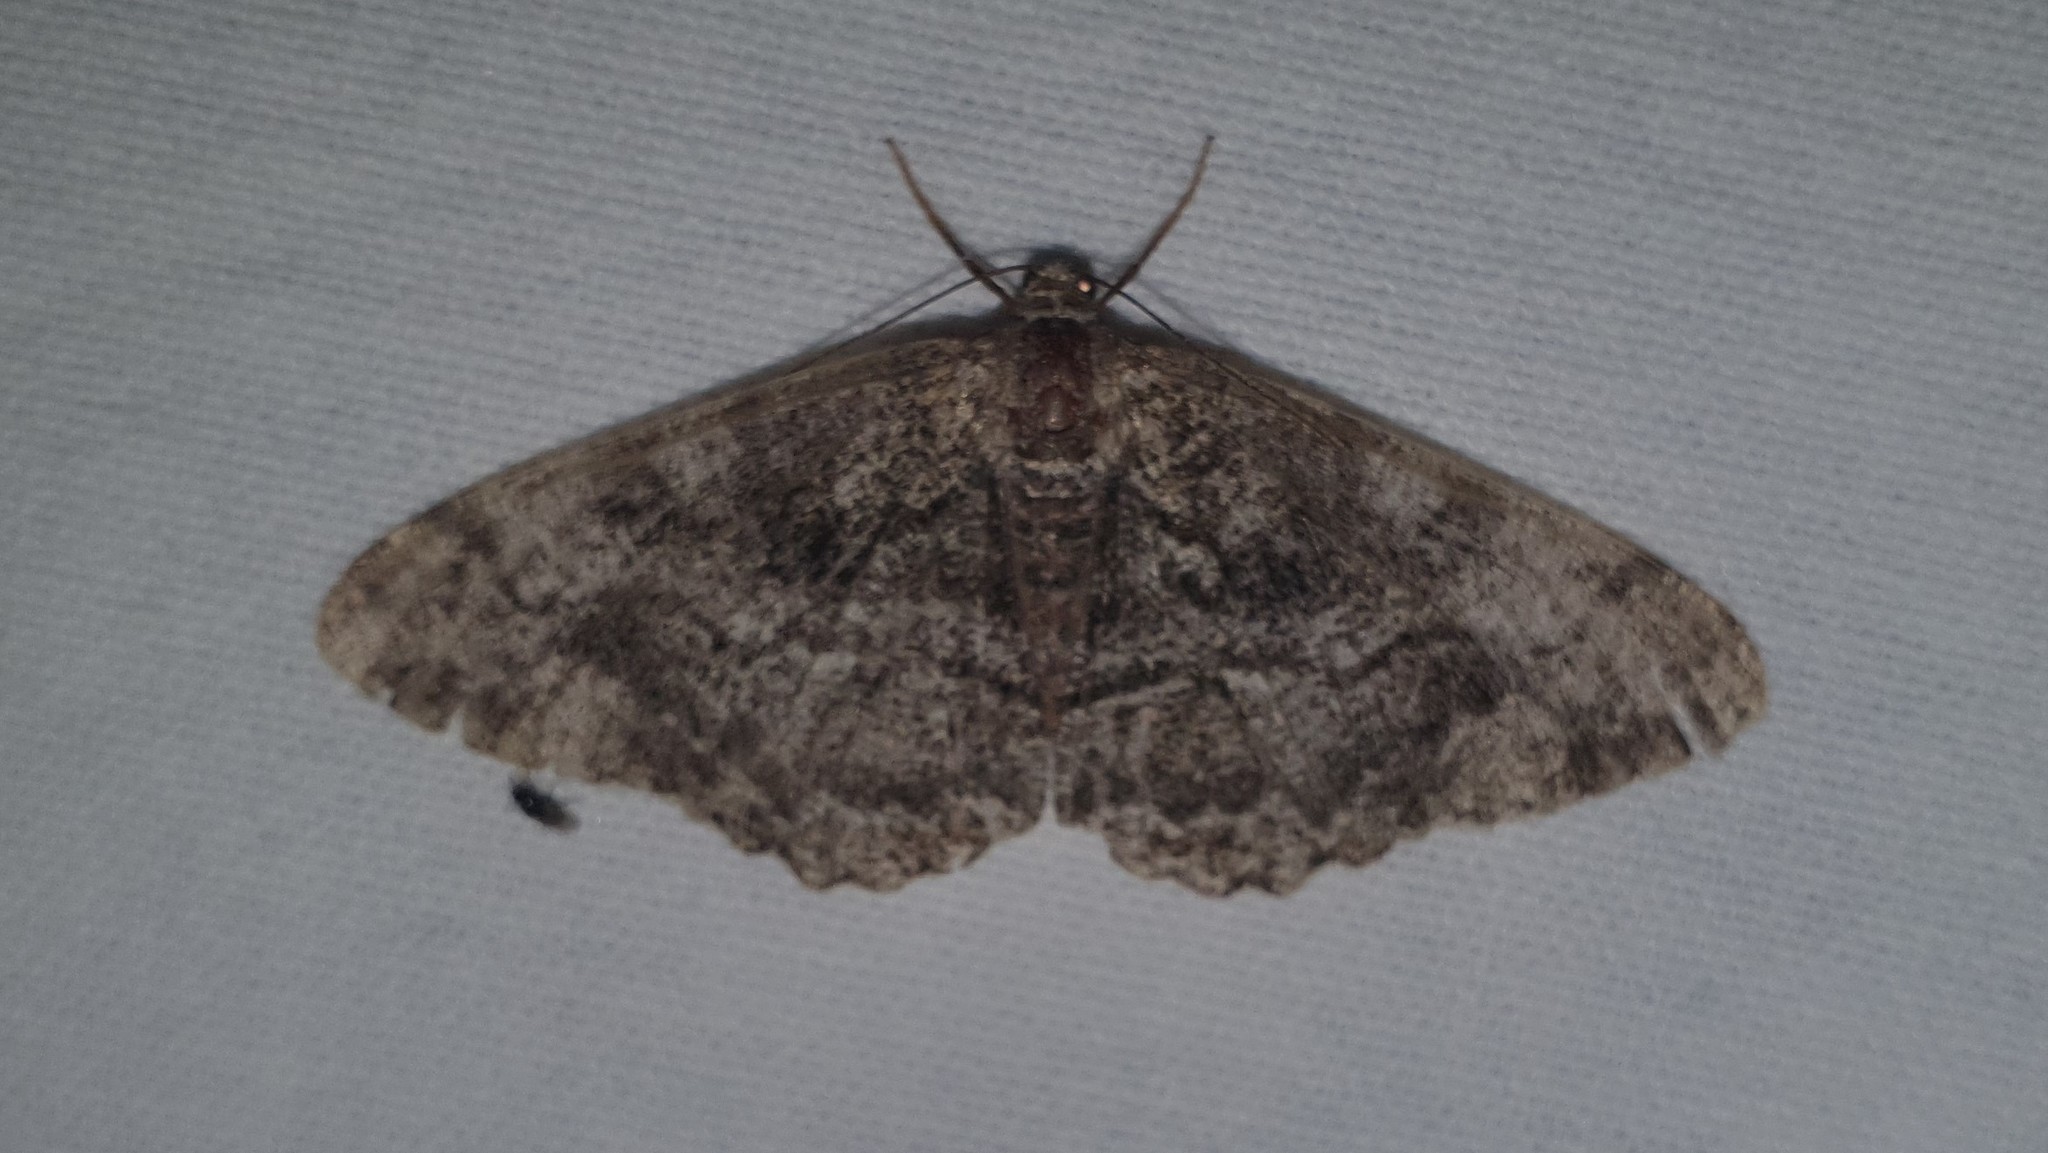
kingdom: Animalia
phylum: Arthropoda
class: Insecta
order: Lepidoptera
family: Geometridae
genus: Alcis
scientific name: Alcis repandata
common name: Mottled beauty
